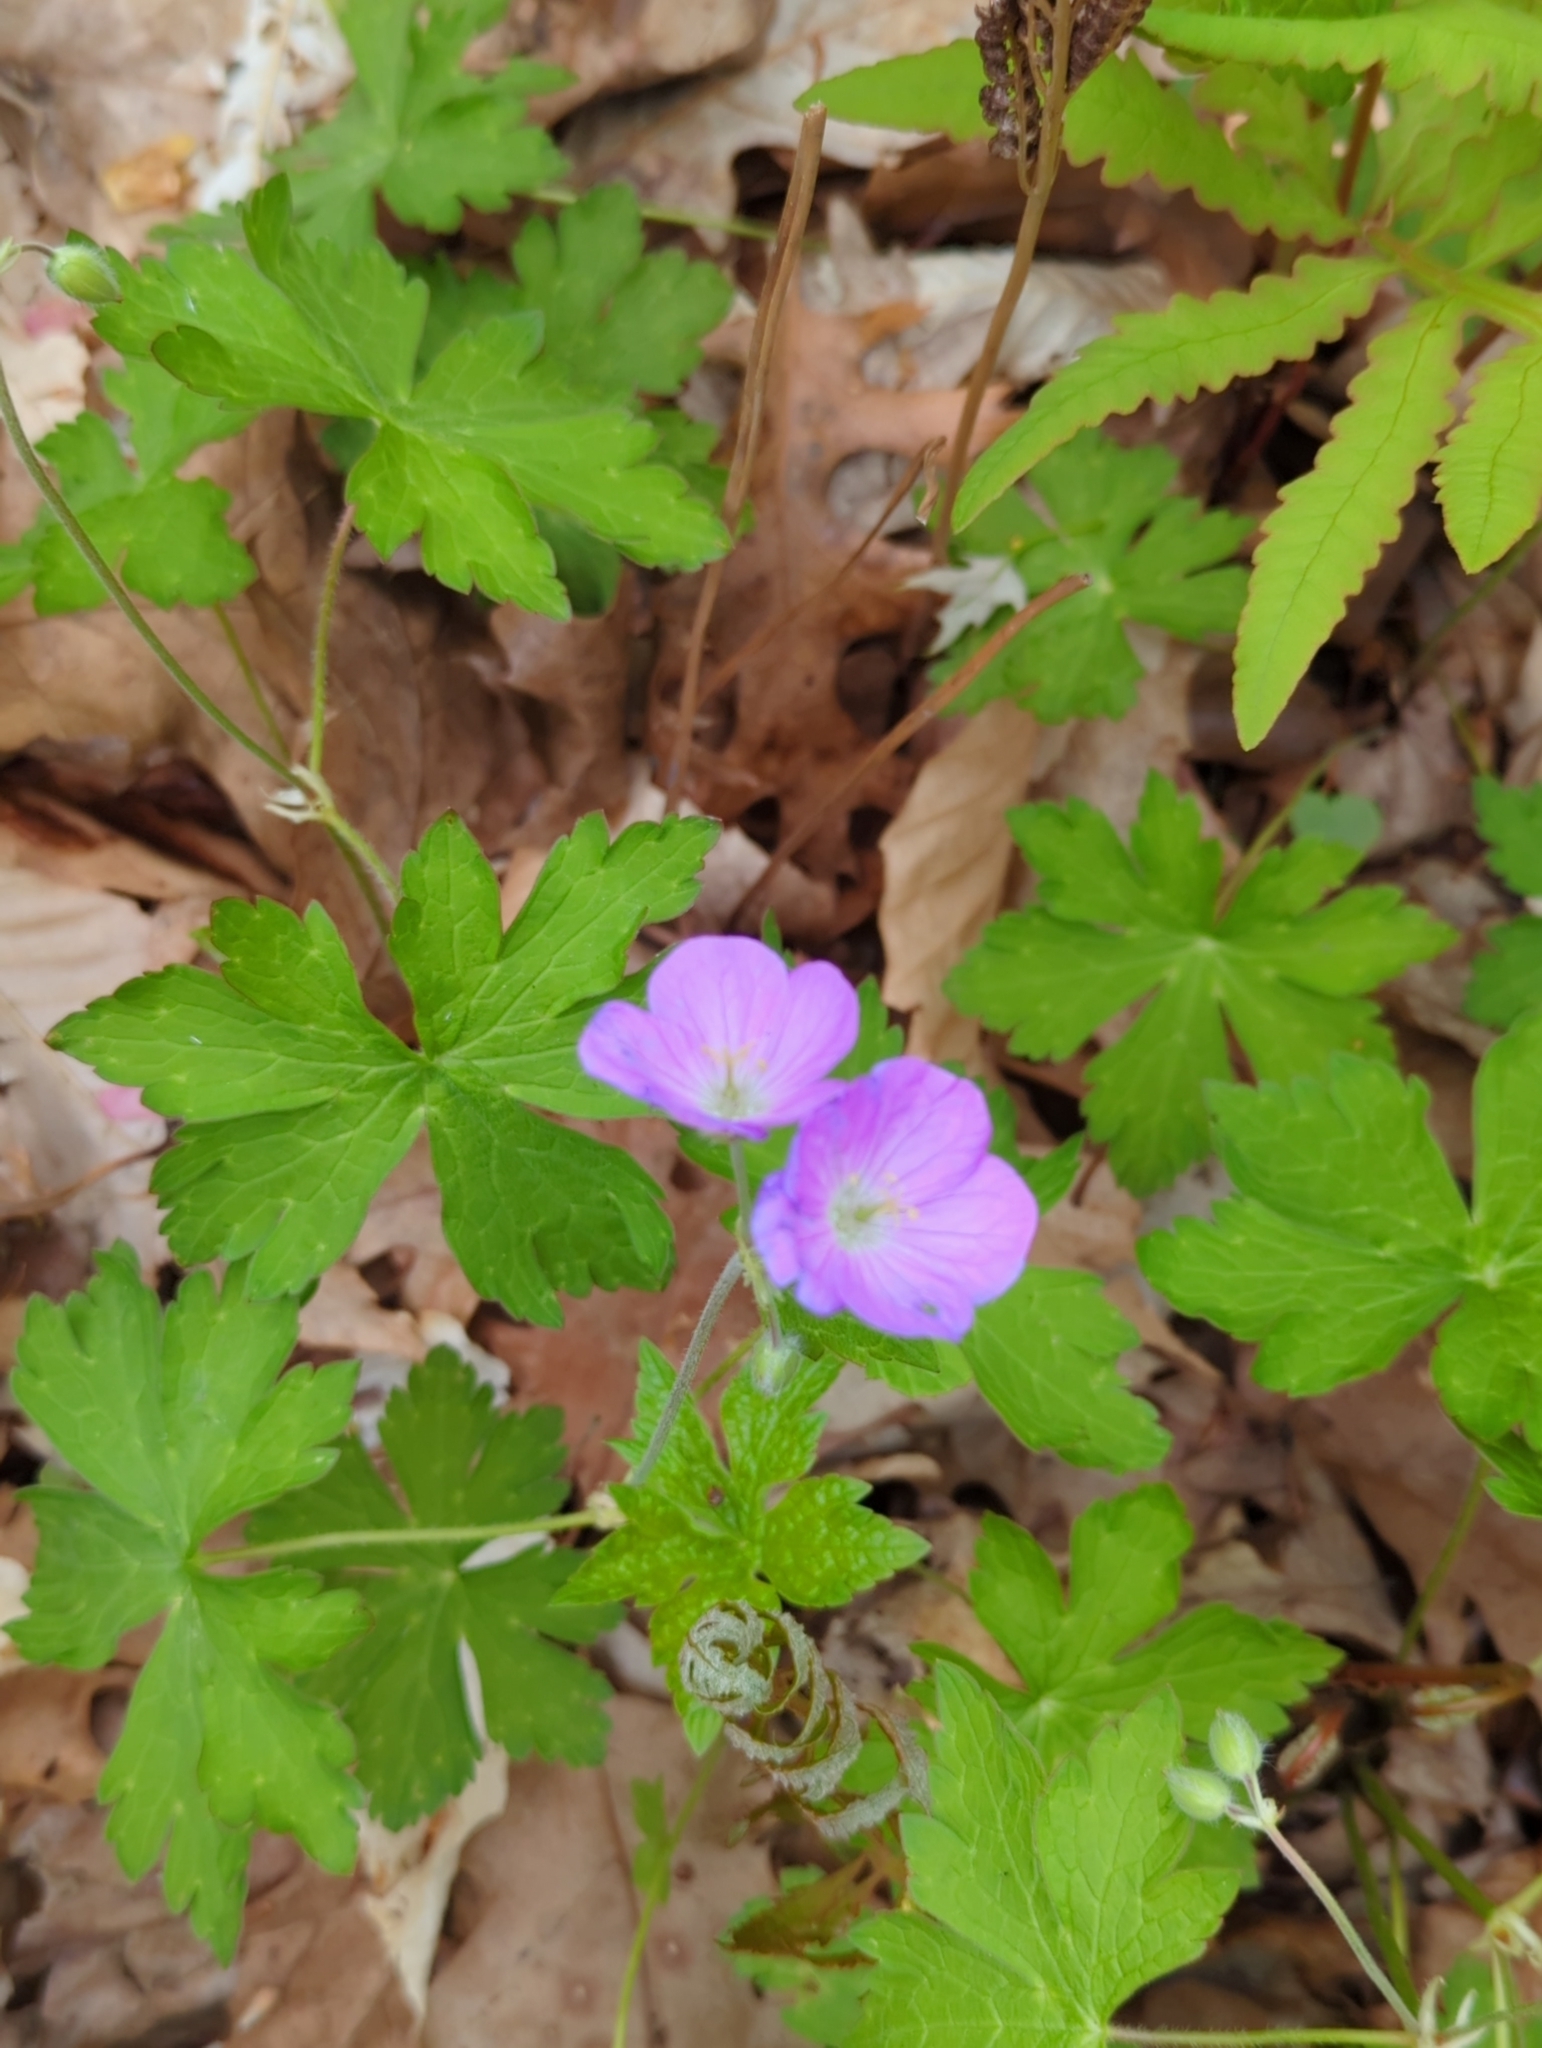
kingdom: Plantae
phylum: Tracheophyta
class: Magnoliopsida
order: Geraniales
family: Geraniaceae
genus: Geranium
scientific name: Geranium maculatum
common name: Spotted geranium
